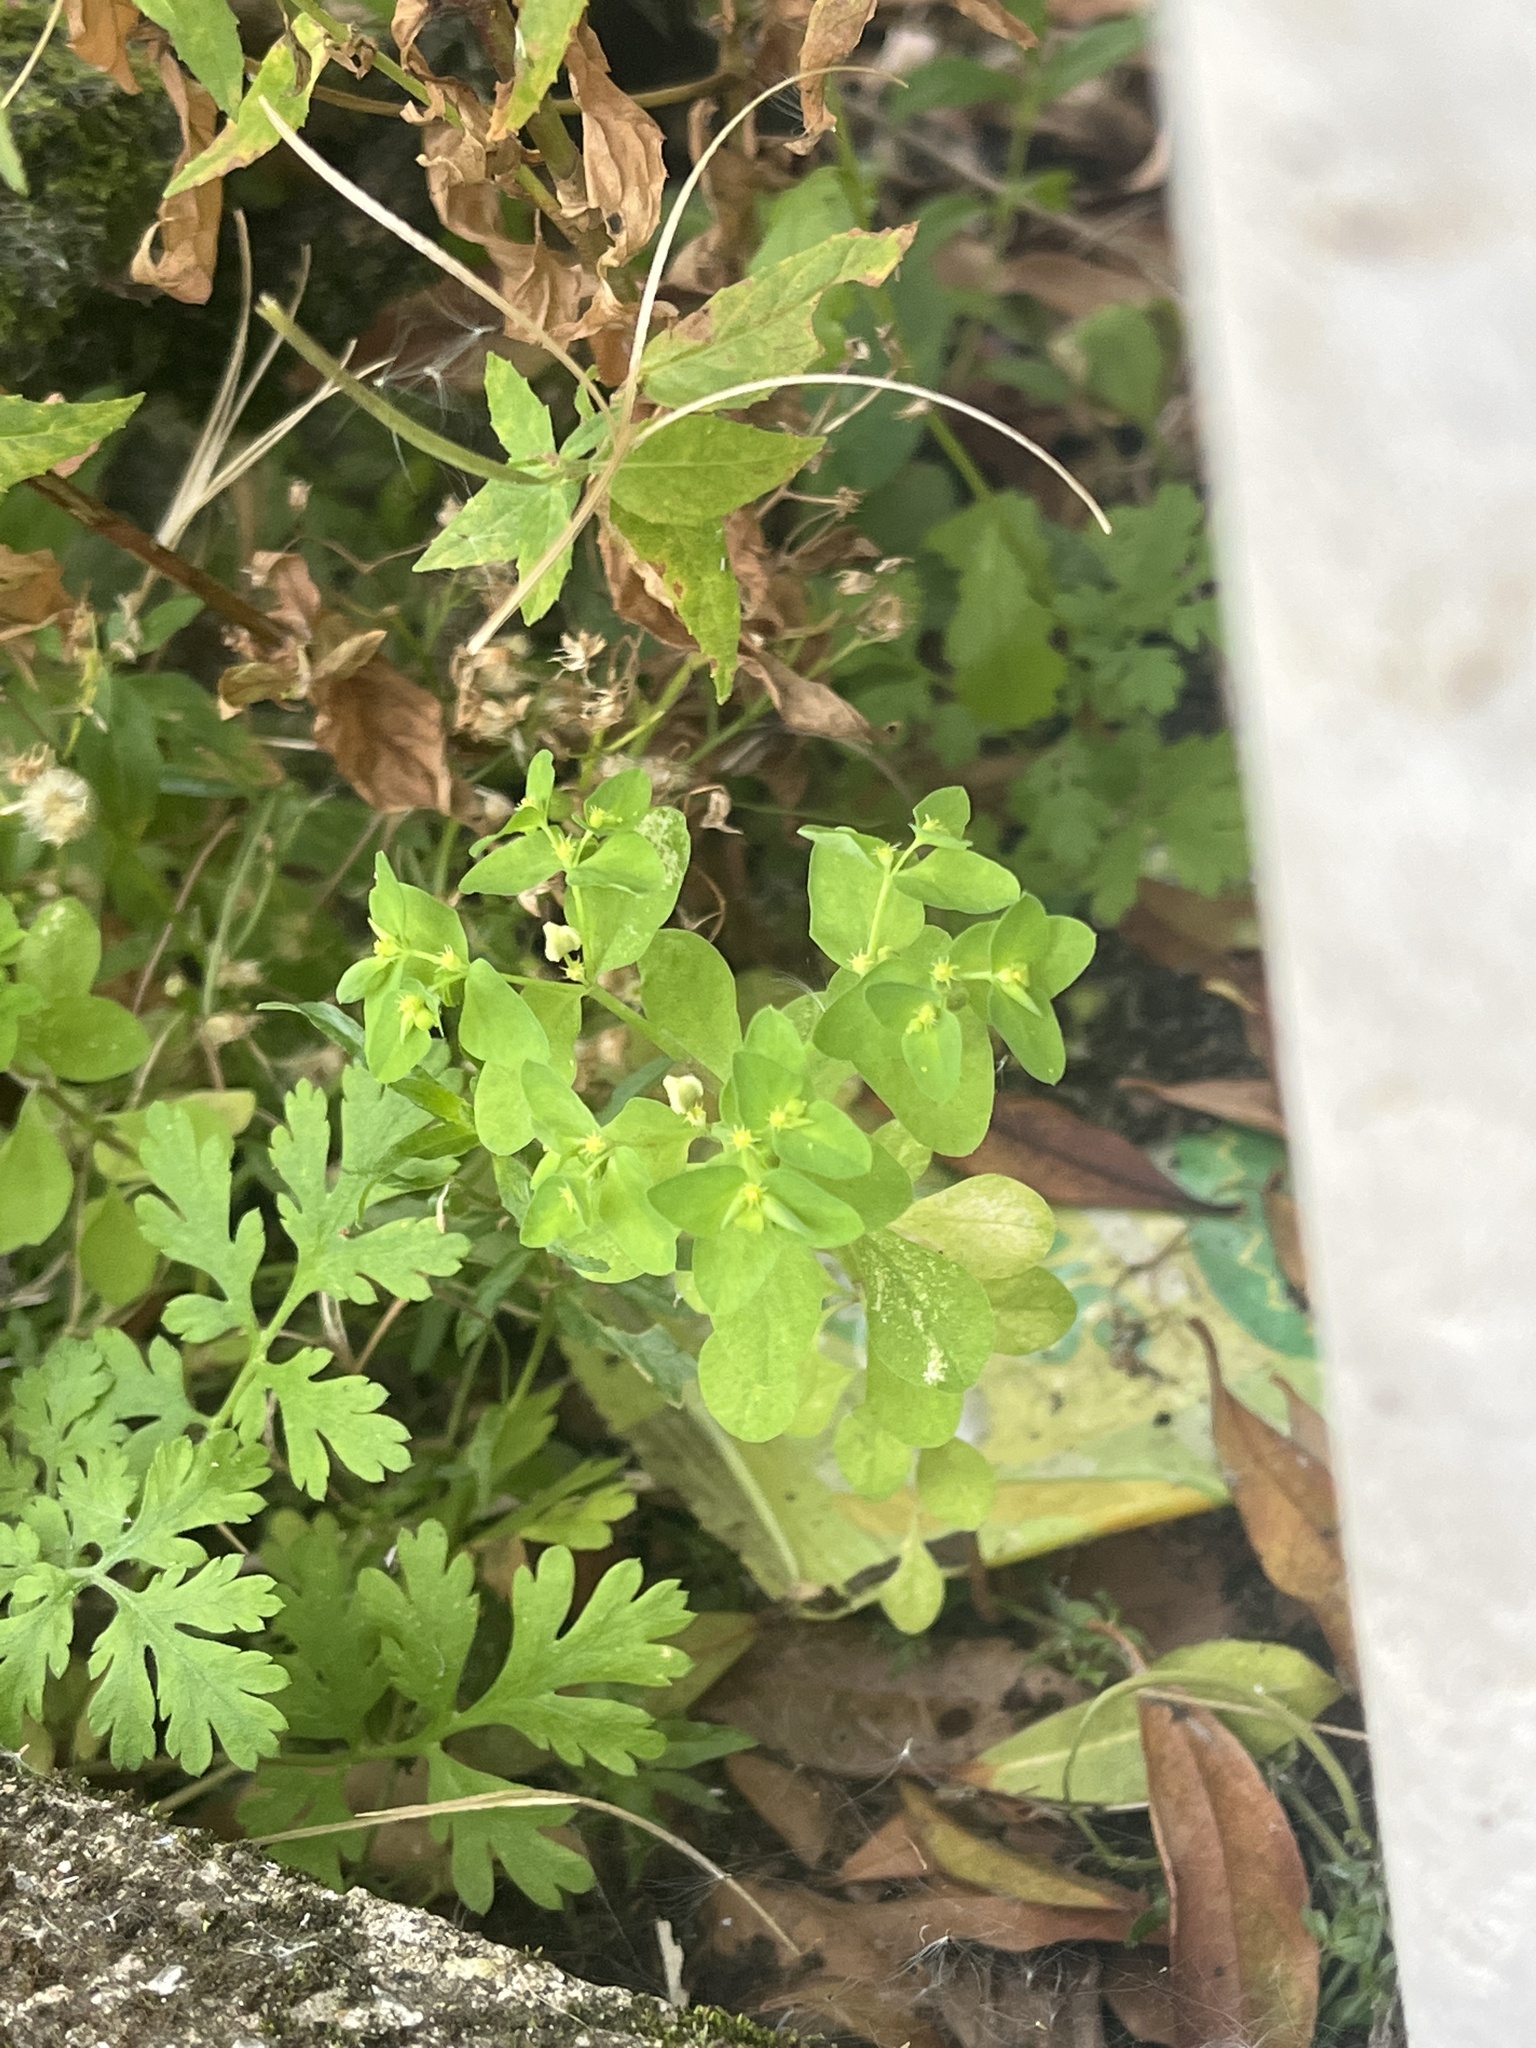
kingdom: Plantae
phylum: Tracheophyta
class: Magnoliopsida
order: Malpighiales
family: Euphorbiaceae
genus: Euphorbia
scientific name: Euphorbia peplus
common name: Petty spurge
